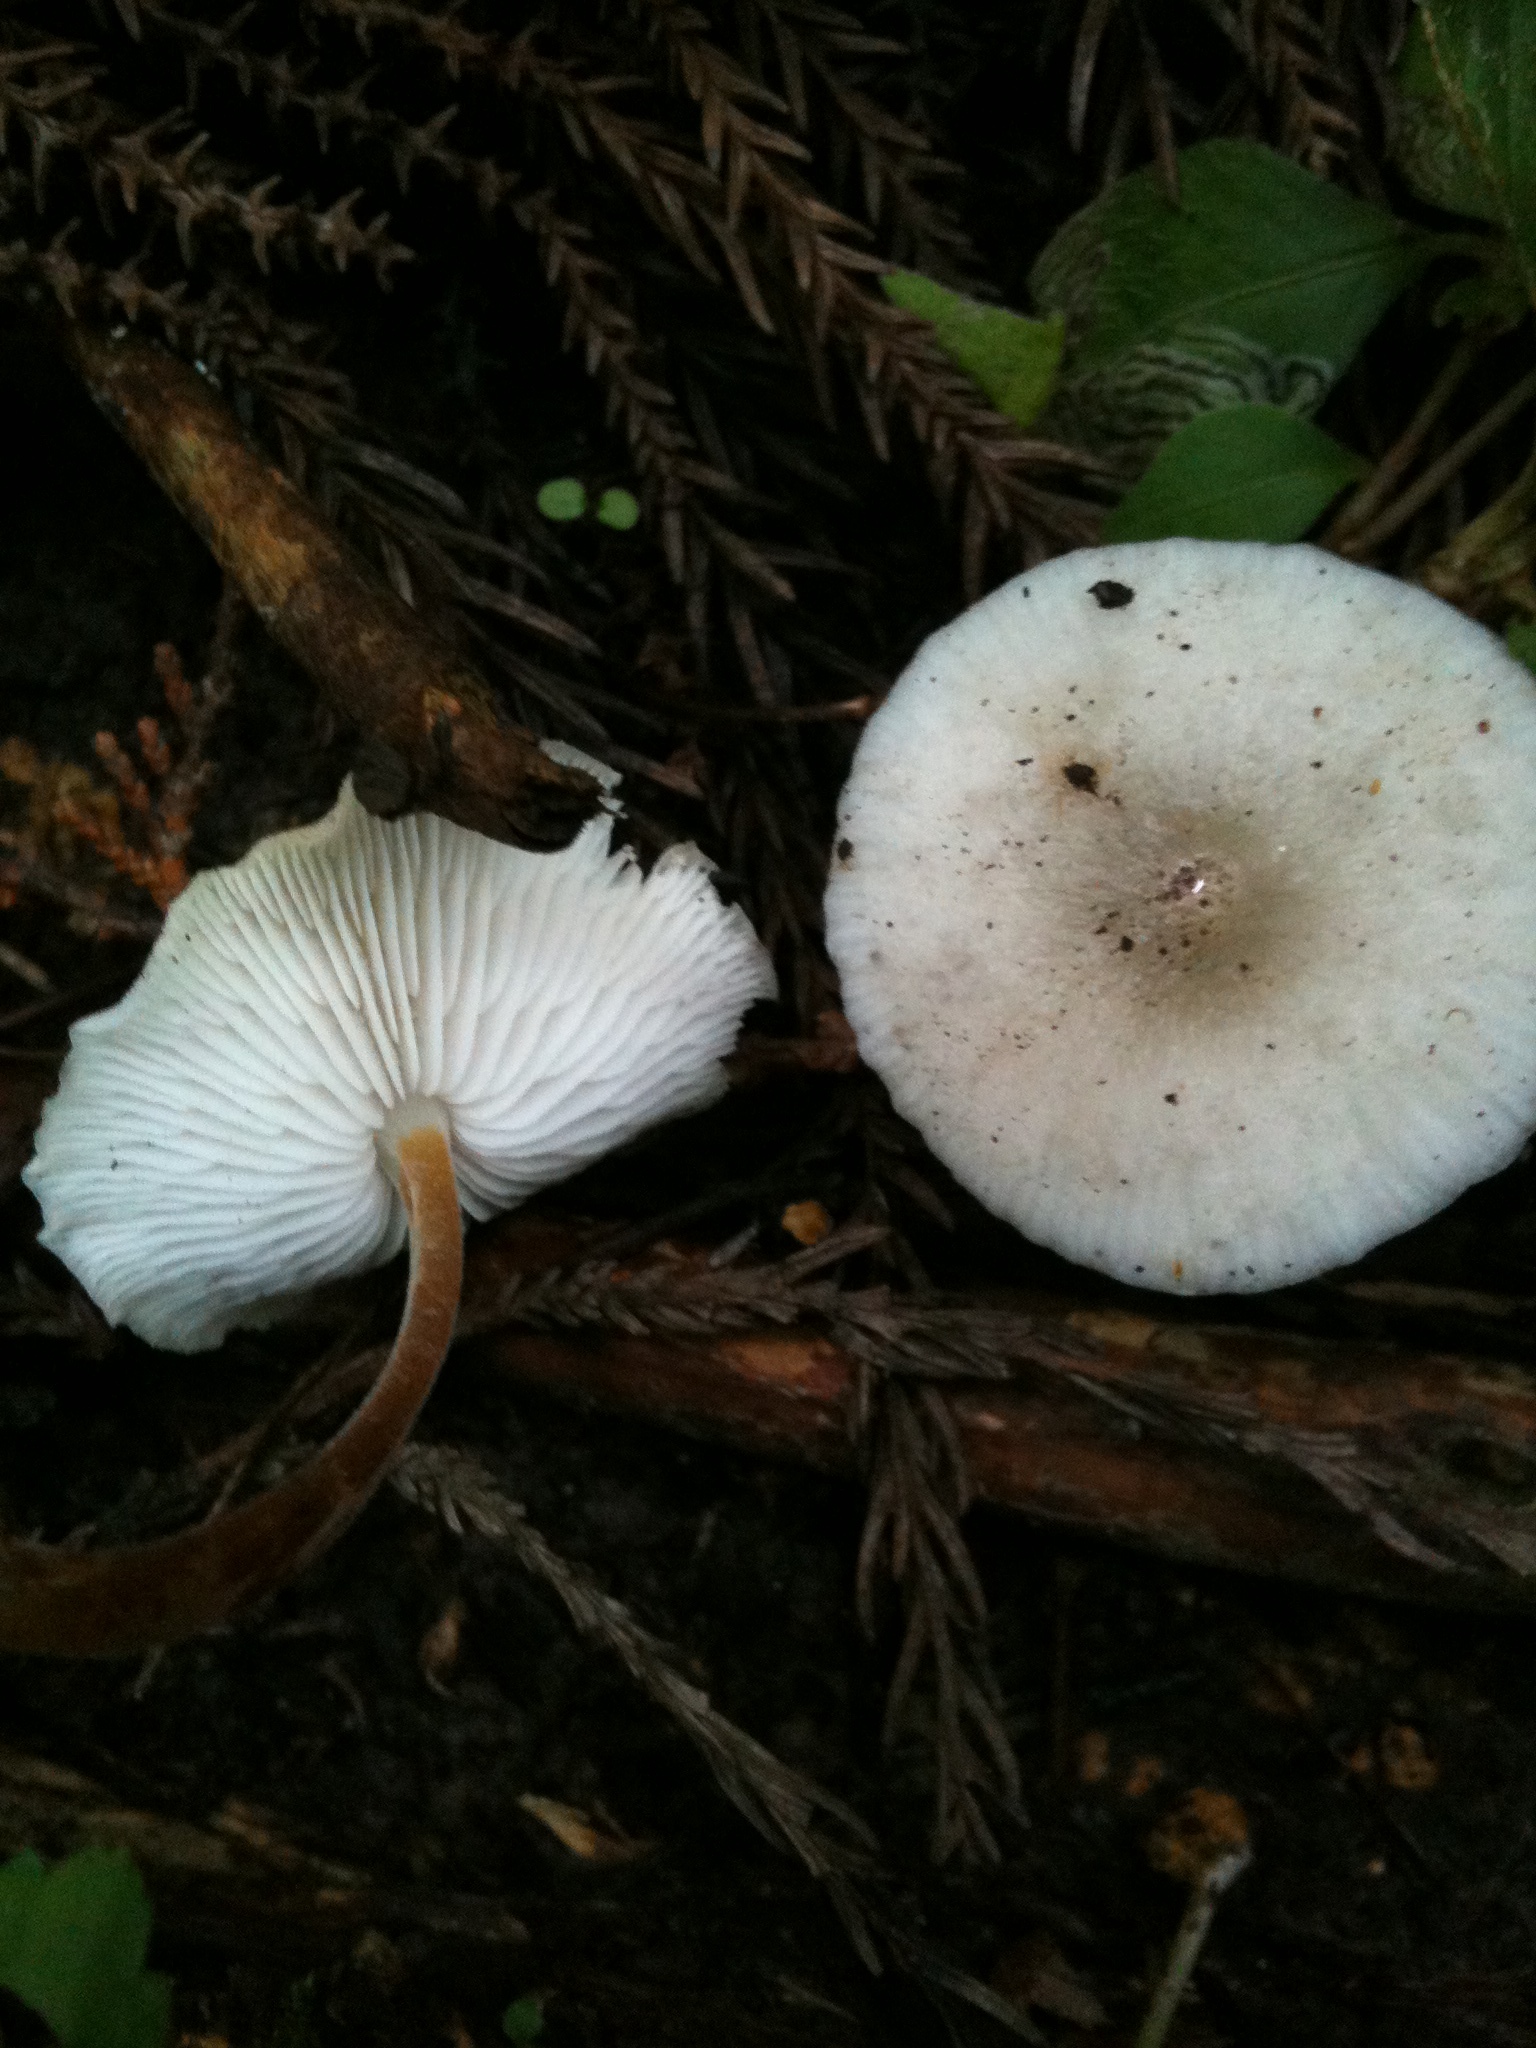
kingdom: Fungi
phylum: Basidiomycota
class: Agaricomycetes
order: Agaricales
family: Physalacriaceae
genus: Strobilurus
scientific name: Strobilurus ohshimae
